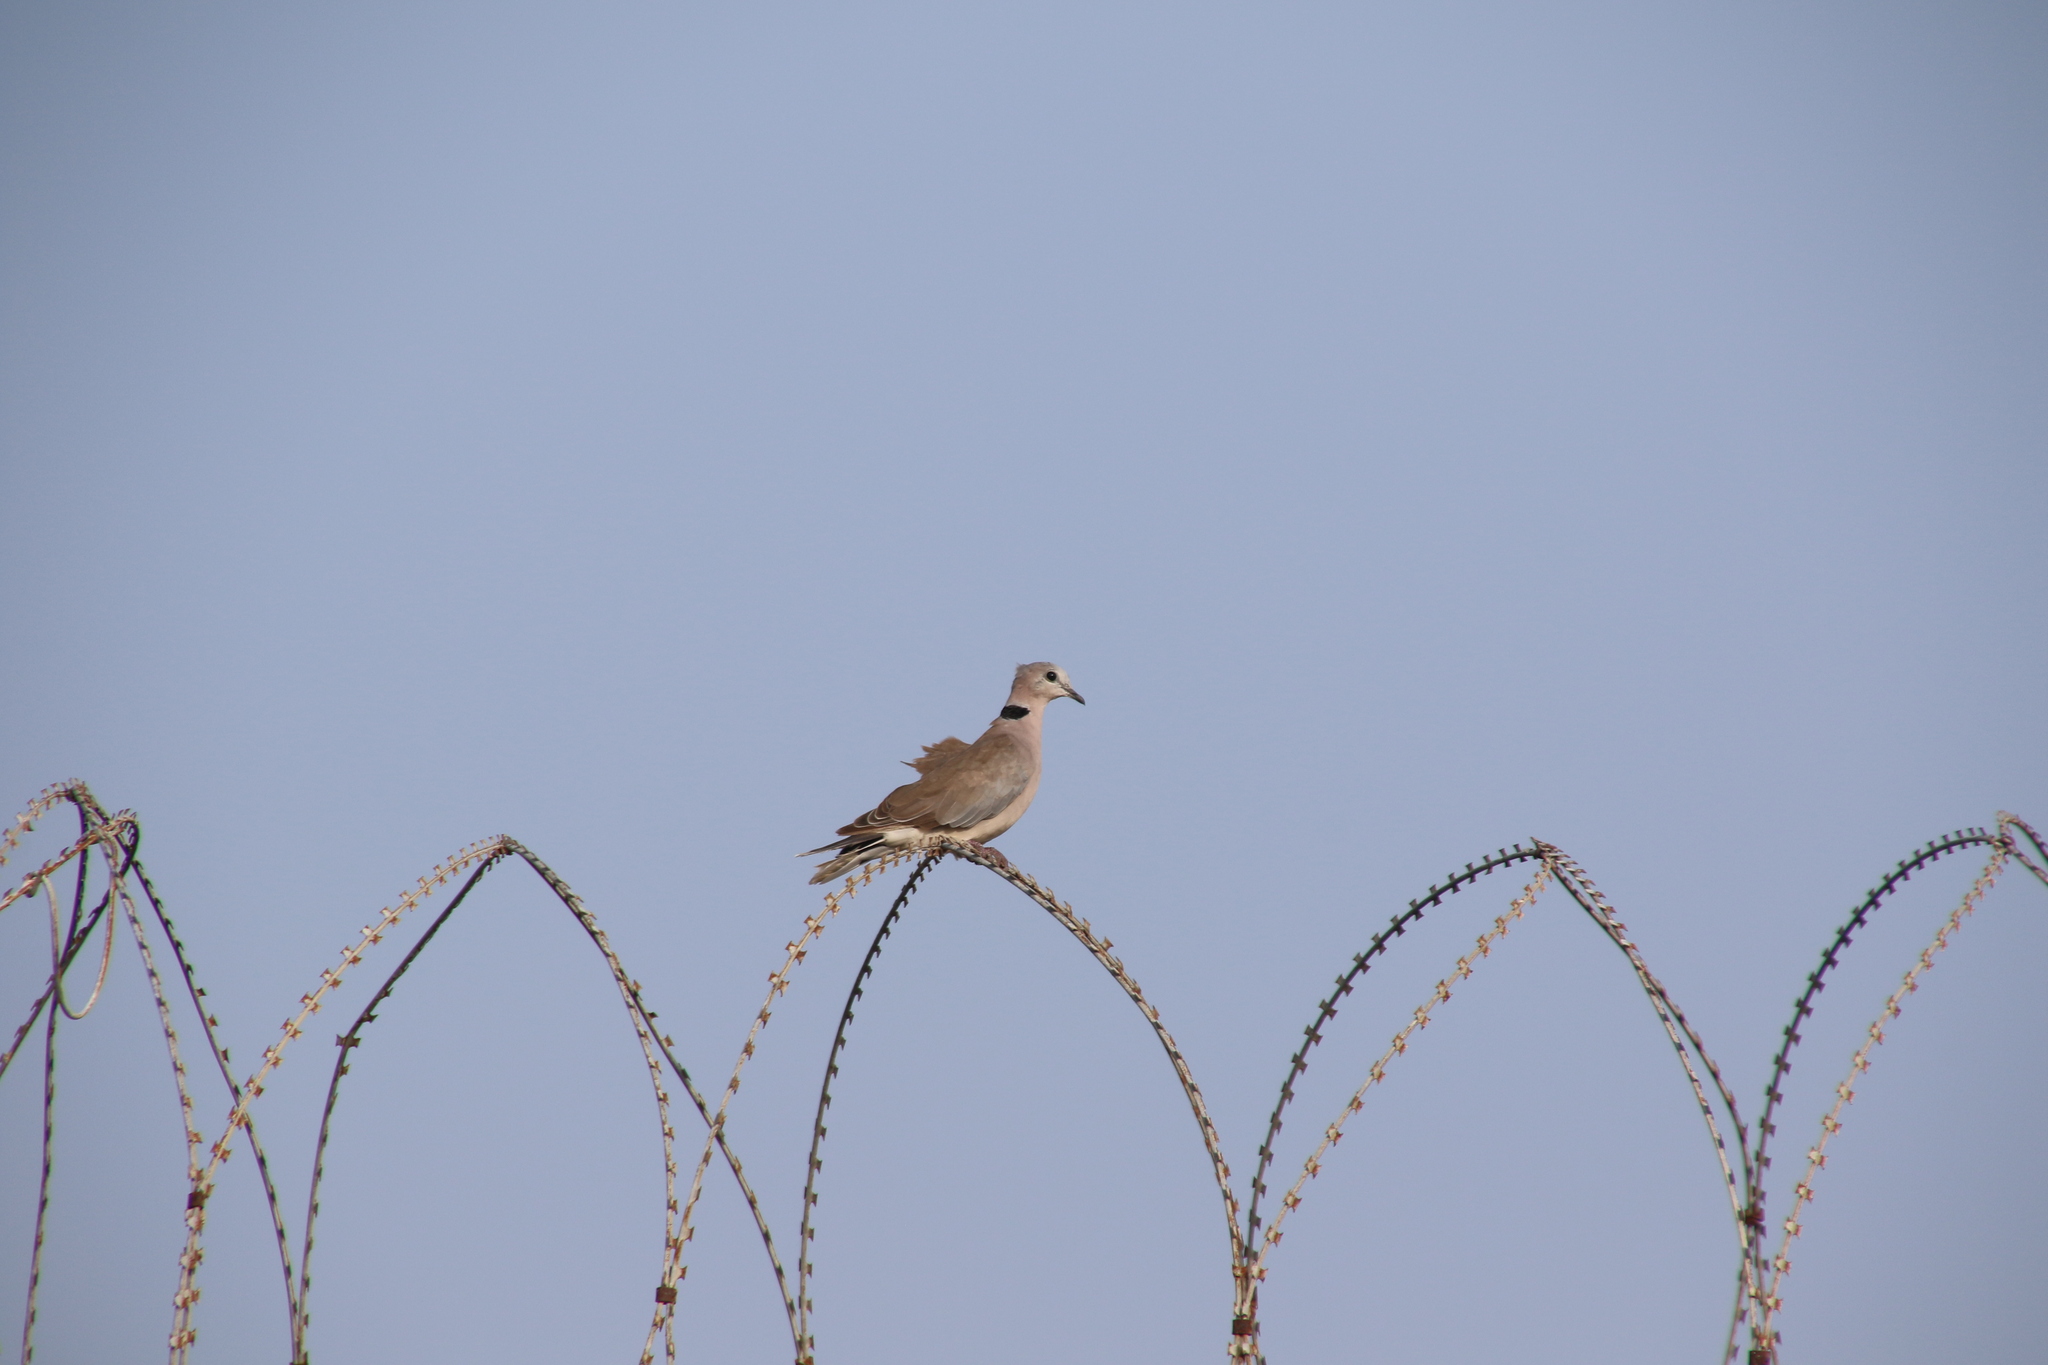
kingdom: Animalia
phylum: Chordata
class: Aves
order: Columbiformes
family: Columbidae
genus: Streptopelia
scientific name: Streptopelia capicola
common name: Ring-necked dove
